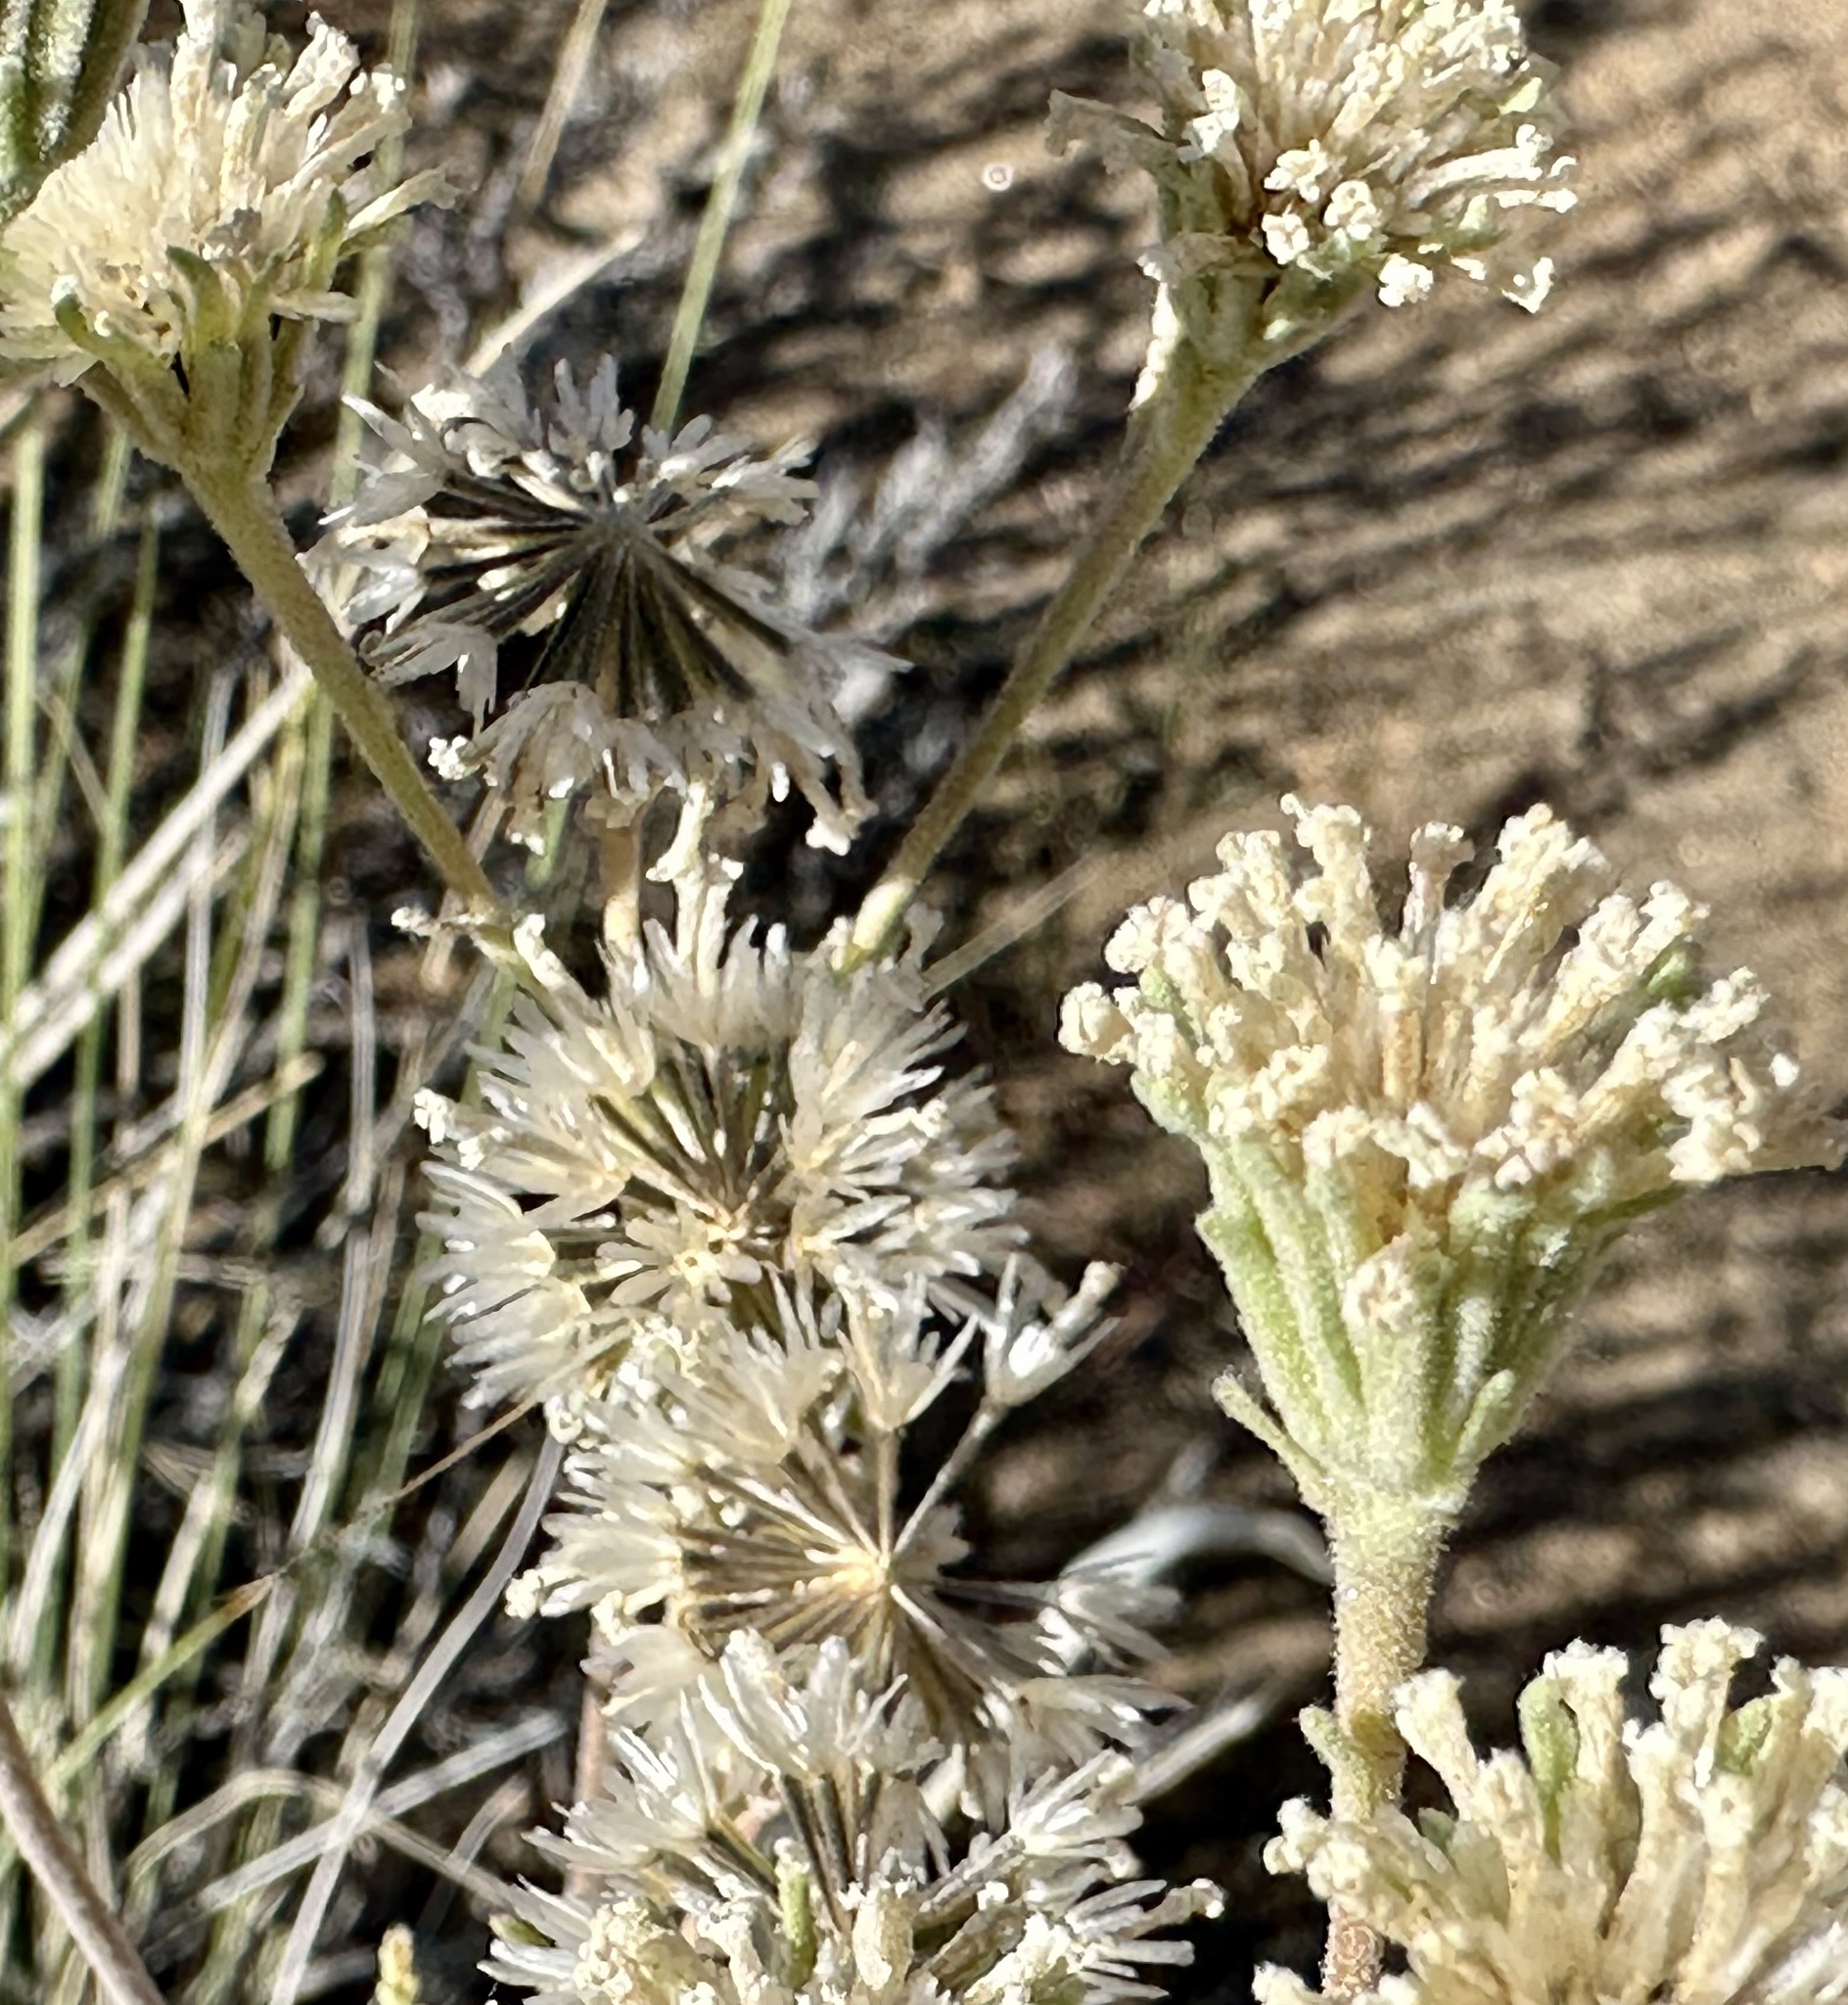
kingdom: Plantae
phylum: Tracheophyta
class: Magnoliopsida
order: Asterales
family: Asteraceae
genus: Chaenactis
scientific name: Chaenactis douglasii
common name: Hoary pincushion
